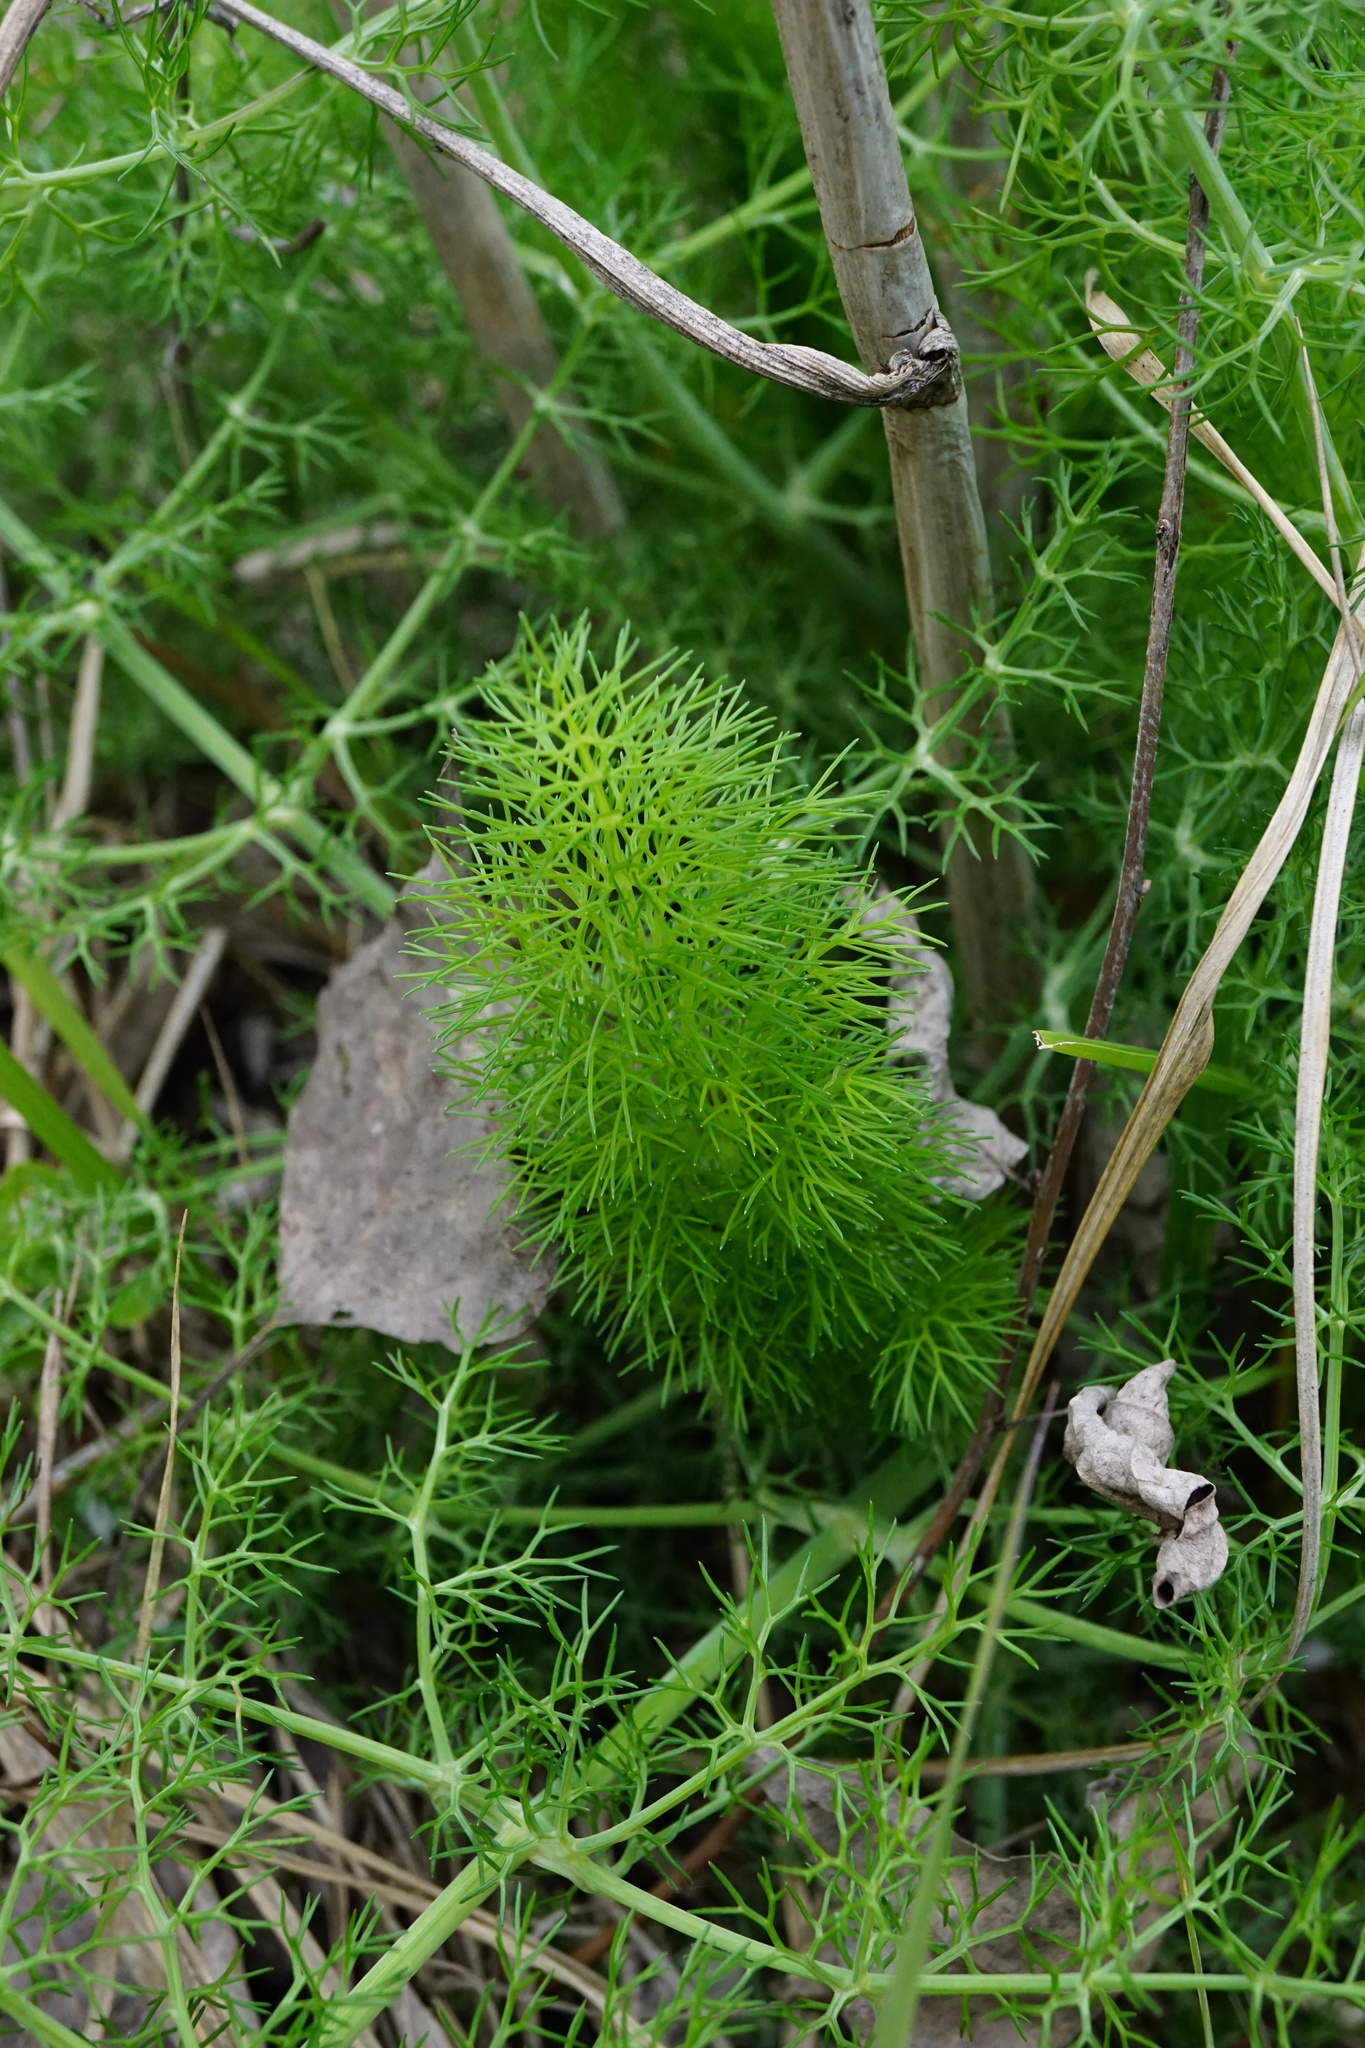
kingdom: Plantae
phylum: Tracheophyta
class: Magnoliopsida
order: Apiales
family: Apiaceae
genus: Foeniculum
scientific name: Foeniculum vulgare
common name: Fennel
